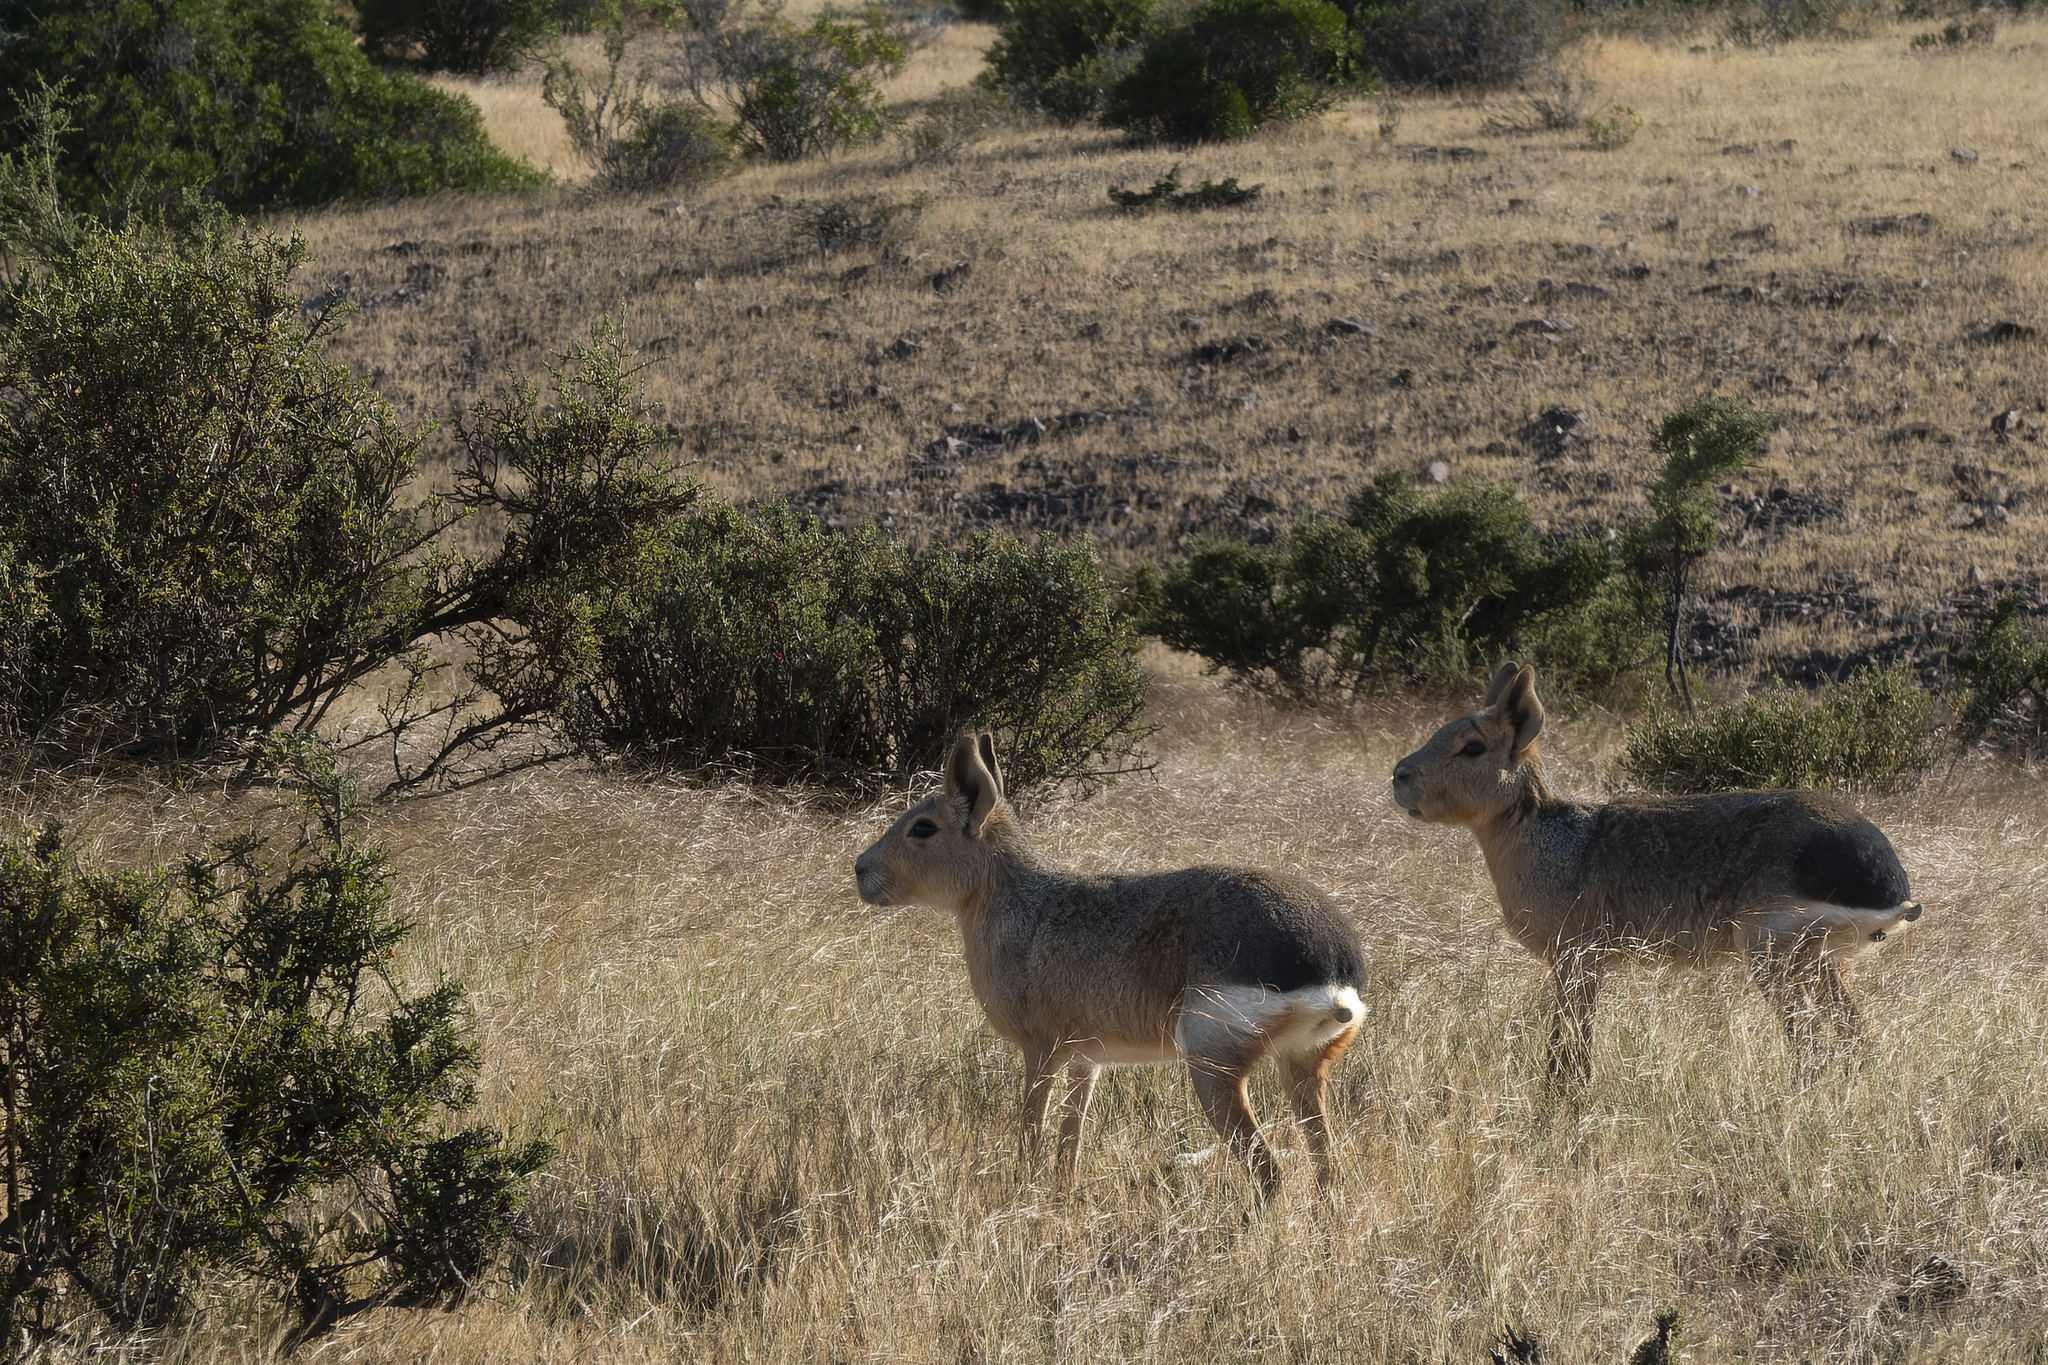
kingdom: Animalia
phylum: Chordata
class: Mammalia
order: Rodentia
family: Caviidae
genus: Dolichotis
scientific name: Dolichotis patagonum
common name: Patagonian mara
